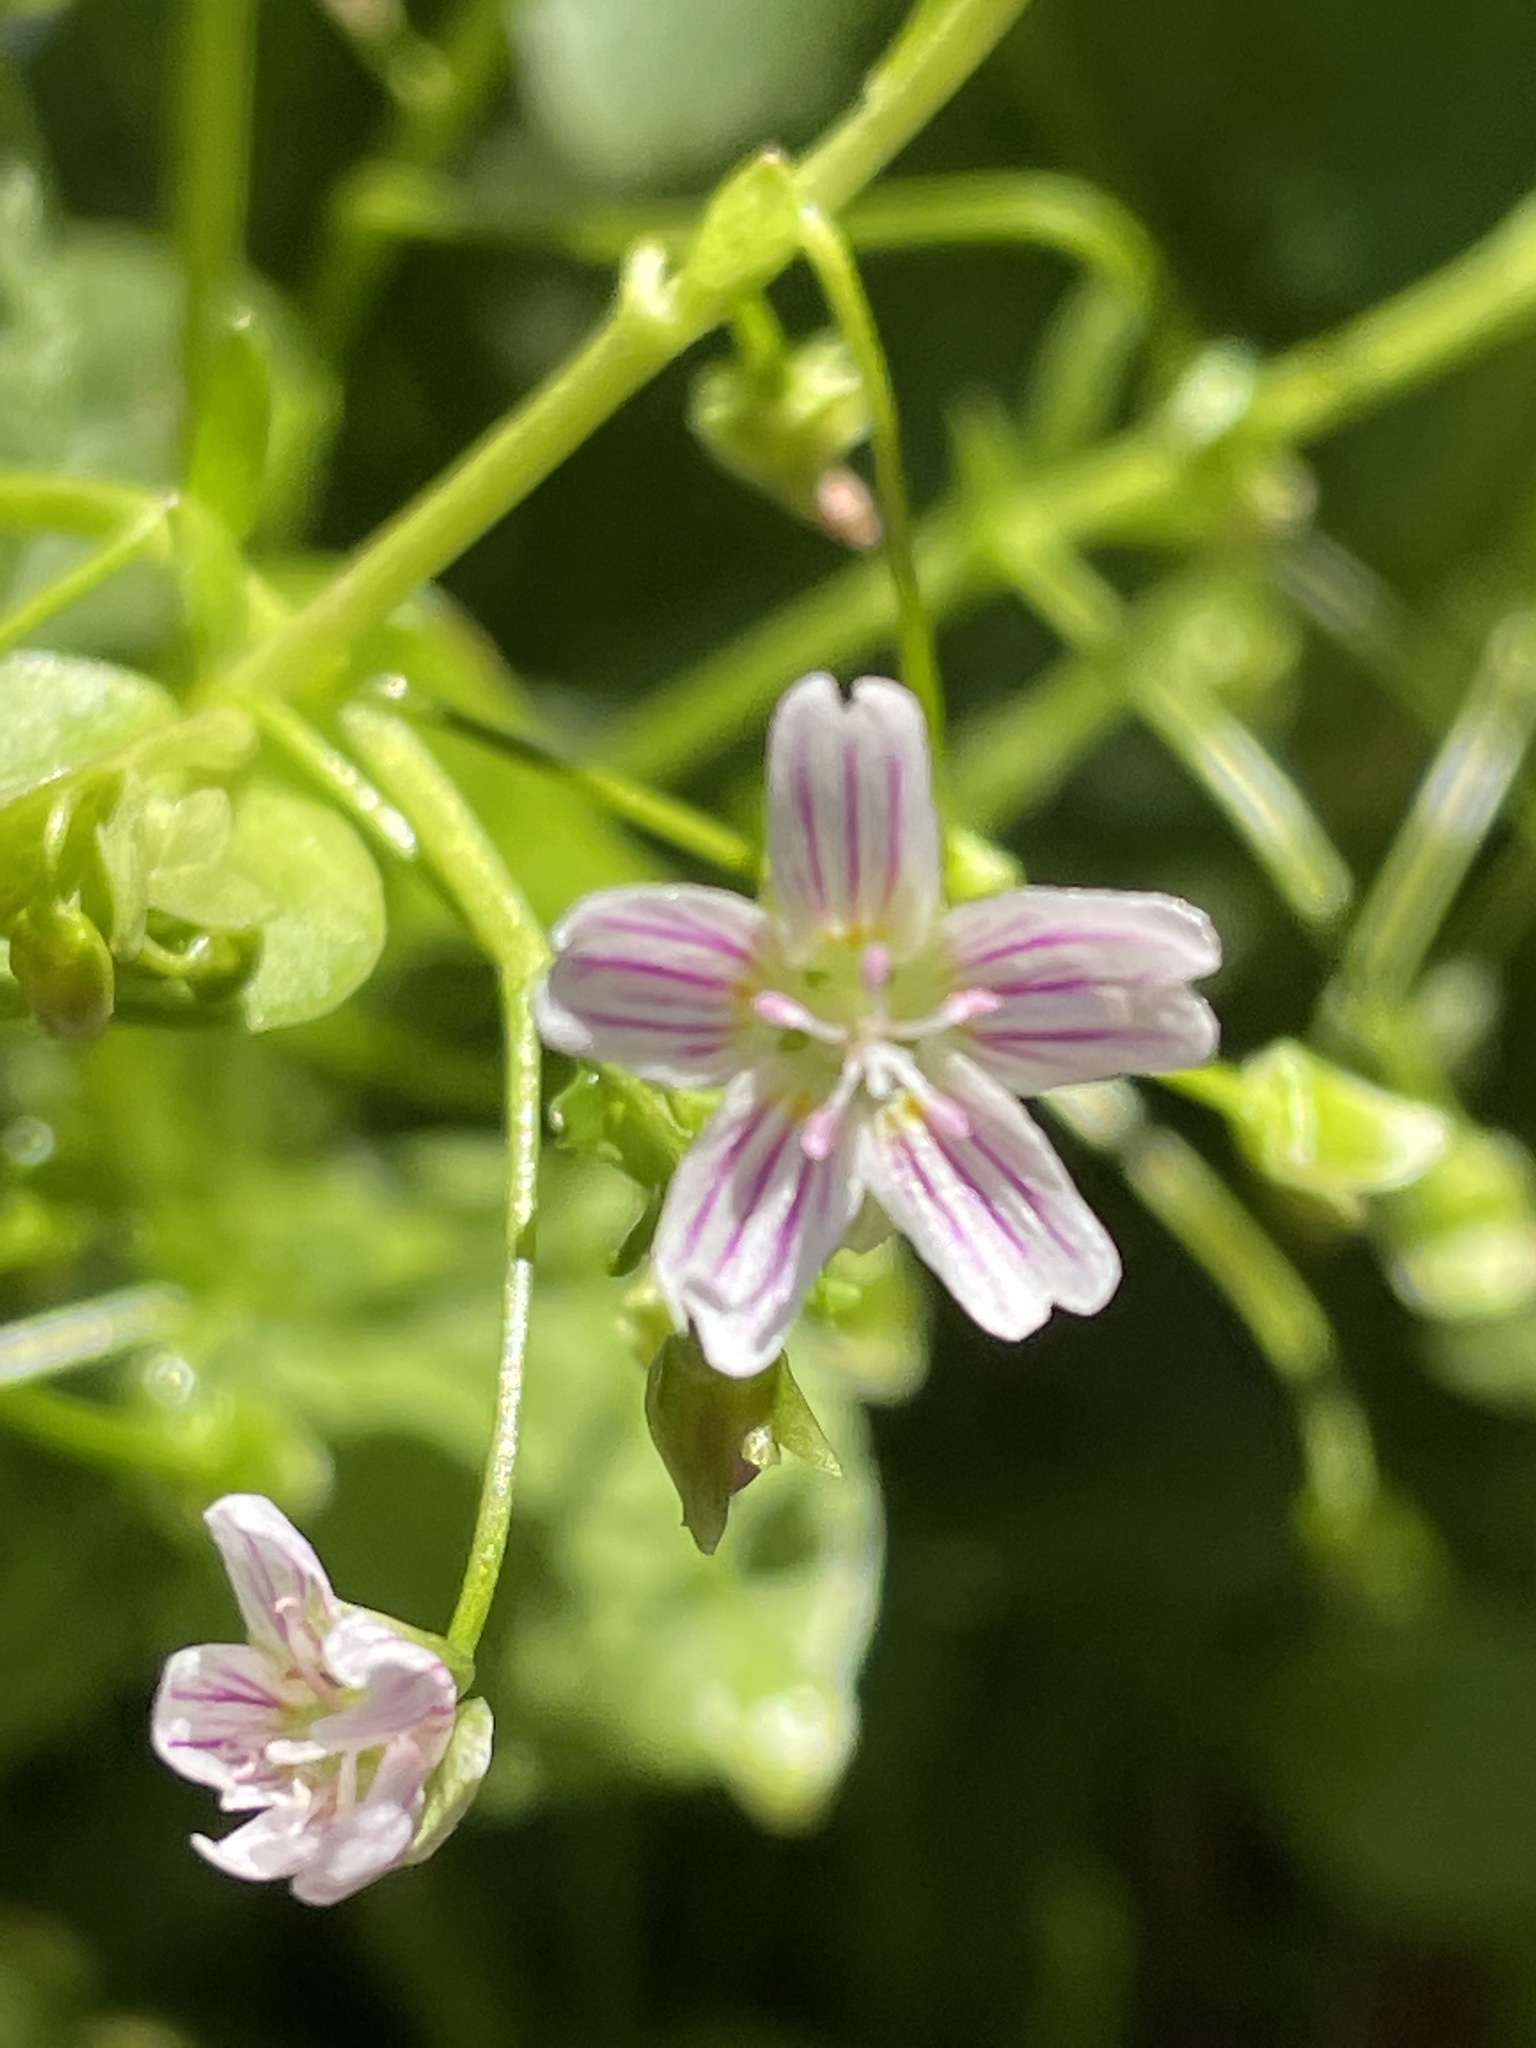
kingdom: Plantae
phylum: Tracheophyta
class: Magnoliopsida
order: Caryophyllales
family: Montiaceae
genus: Claytonia
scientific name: Claytonia sibirica
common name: Pink purslane
